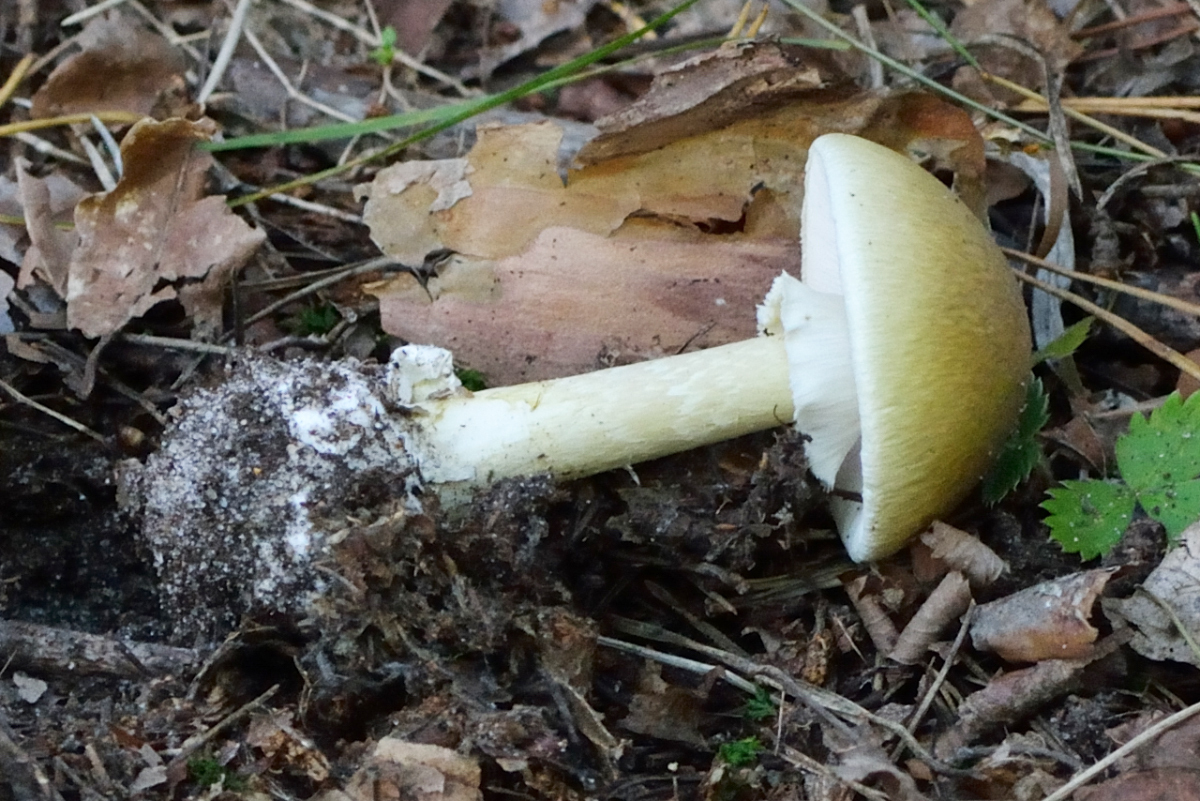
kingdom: Fungi
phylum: Basidiomycota
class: Agaricomycetes
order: Agaricales
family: Amanitaceae
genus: Amanita
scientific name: Amanita phalloides
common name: Death cap
